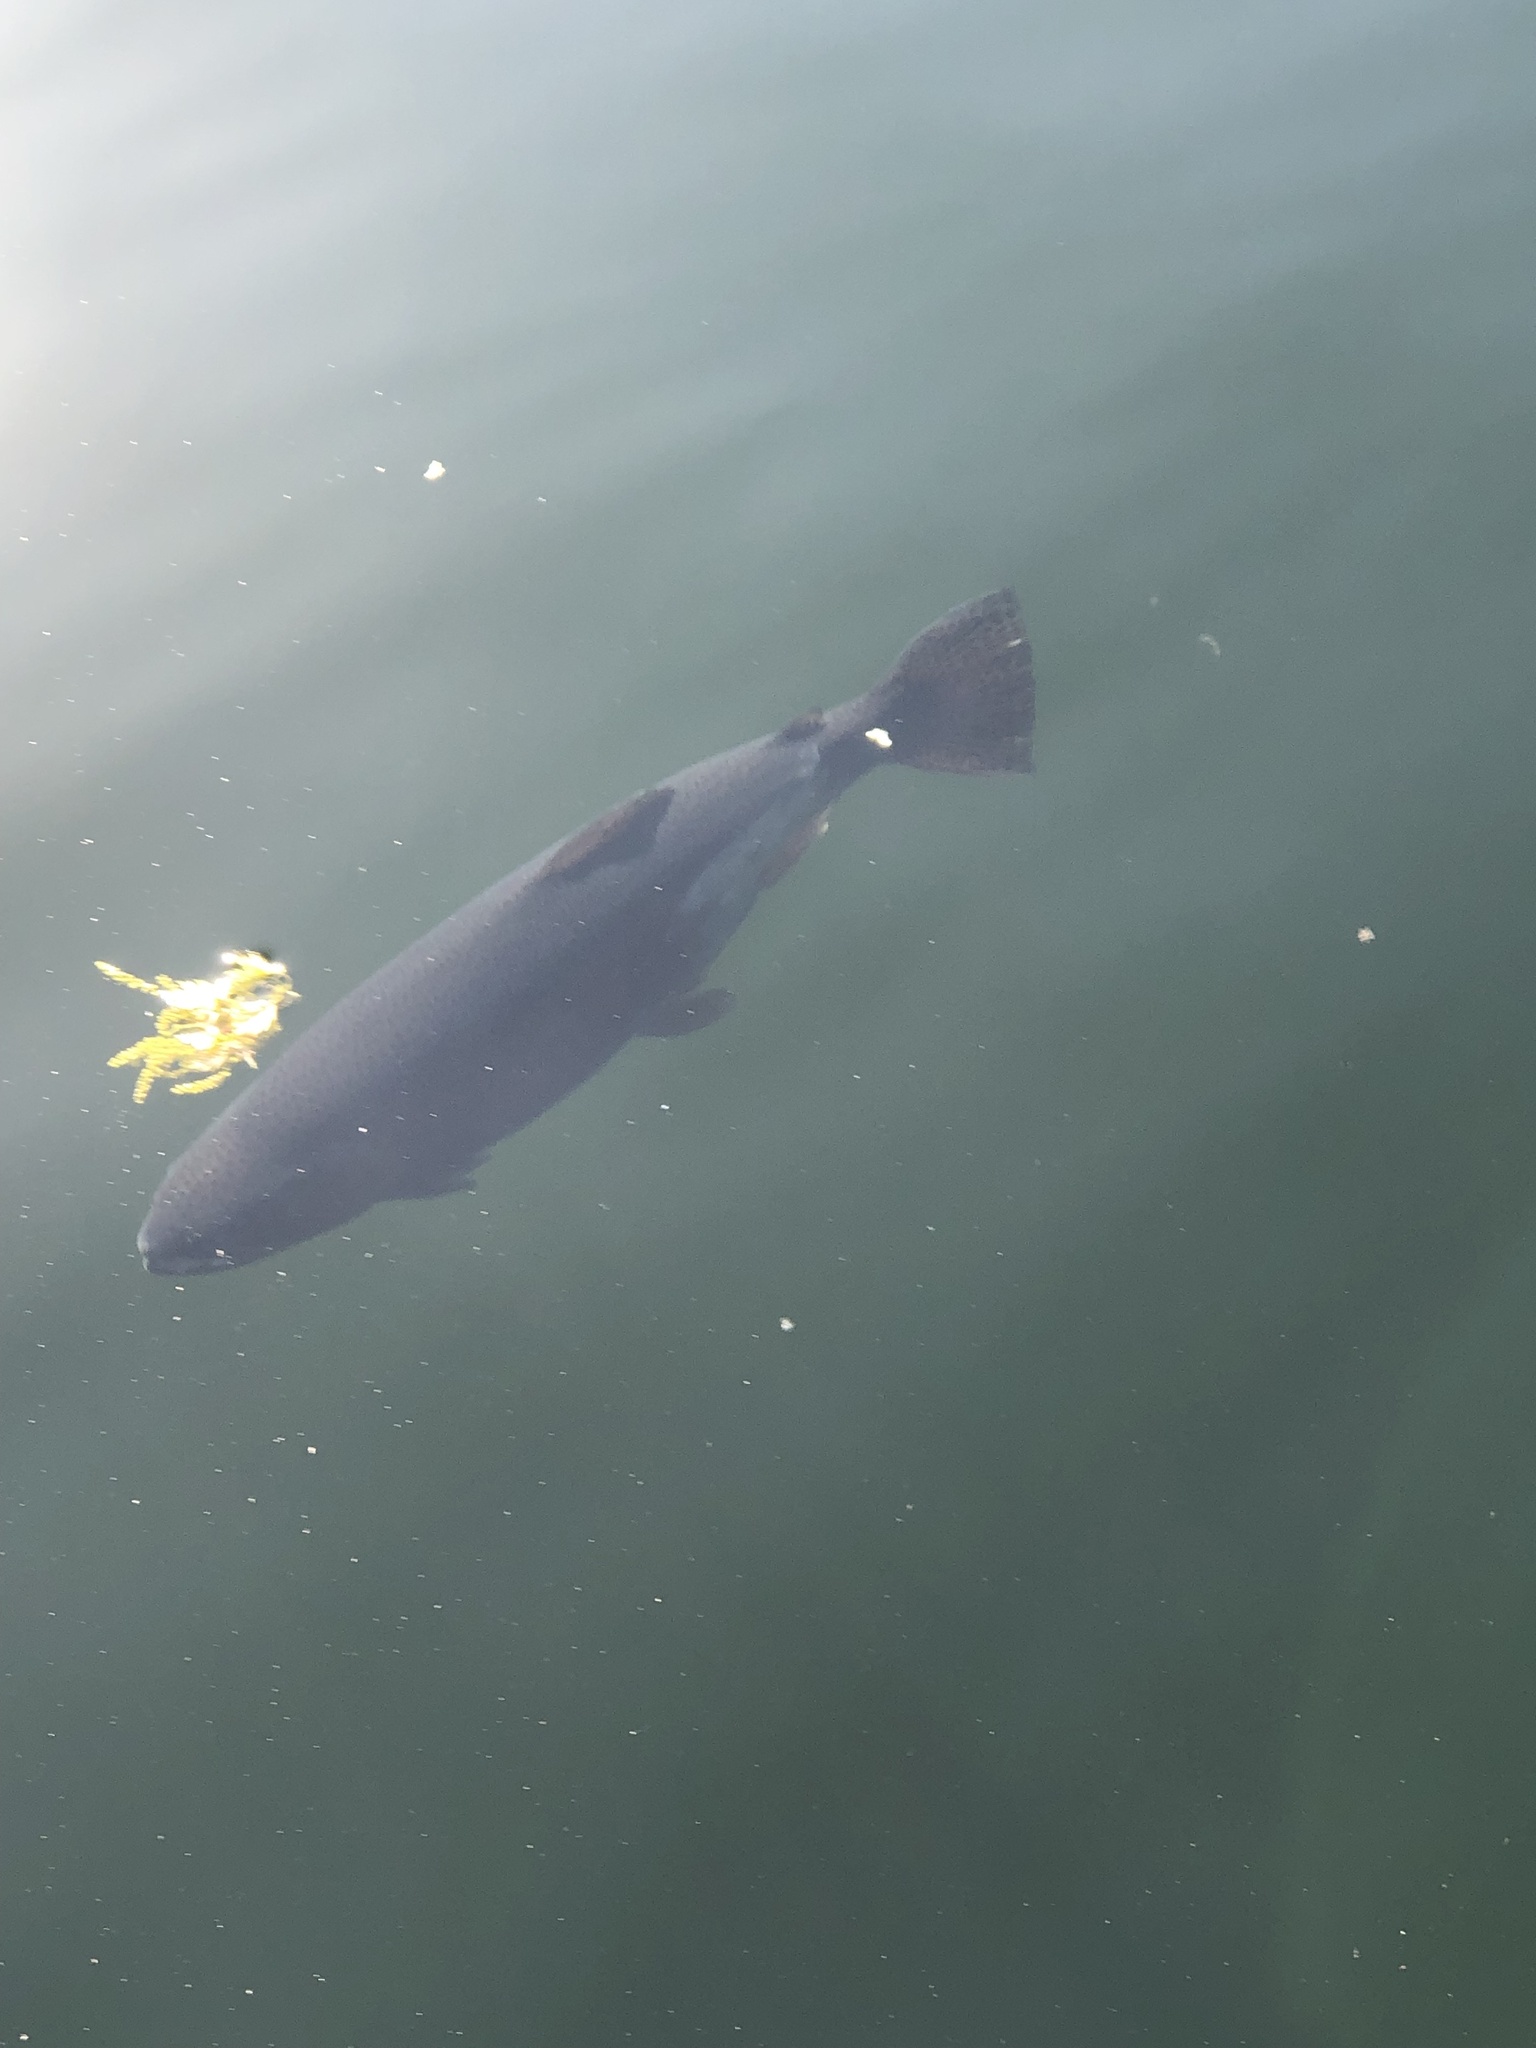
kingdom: Animalia
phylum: Chordata
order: Salmoniformes
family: Salmonidae
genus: Oncorhynchus
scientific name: Oncorhynchus mykiss
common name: Rainbow trout
